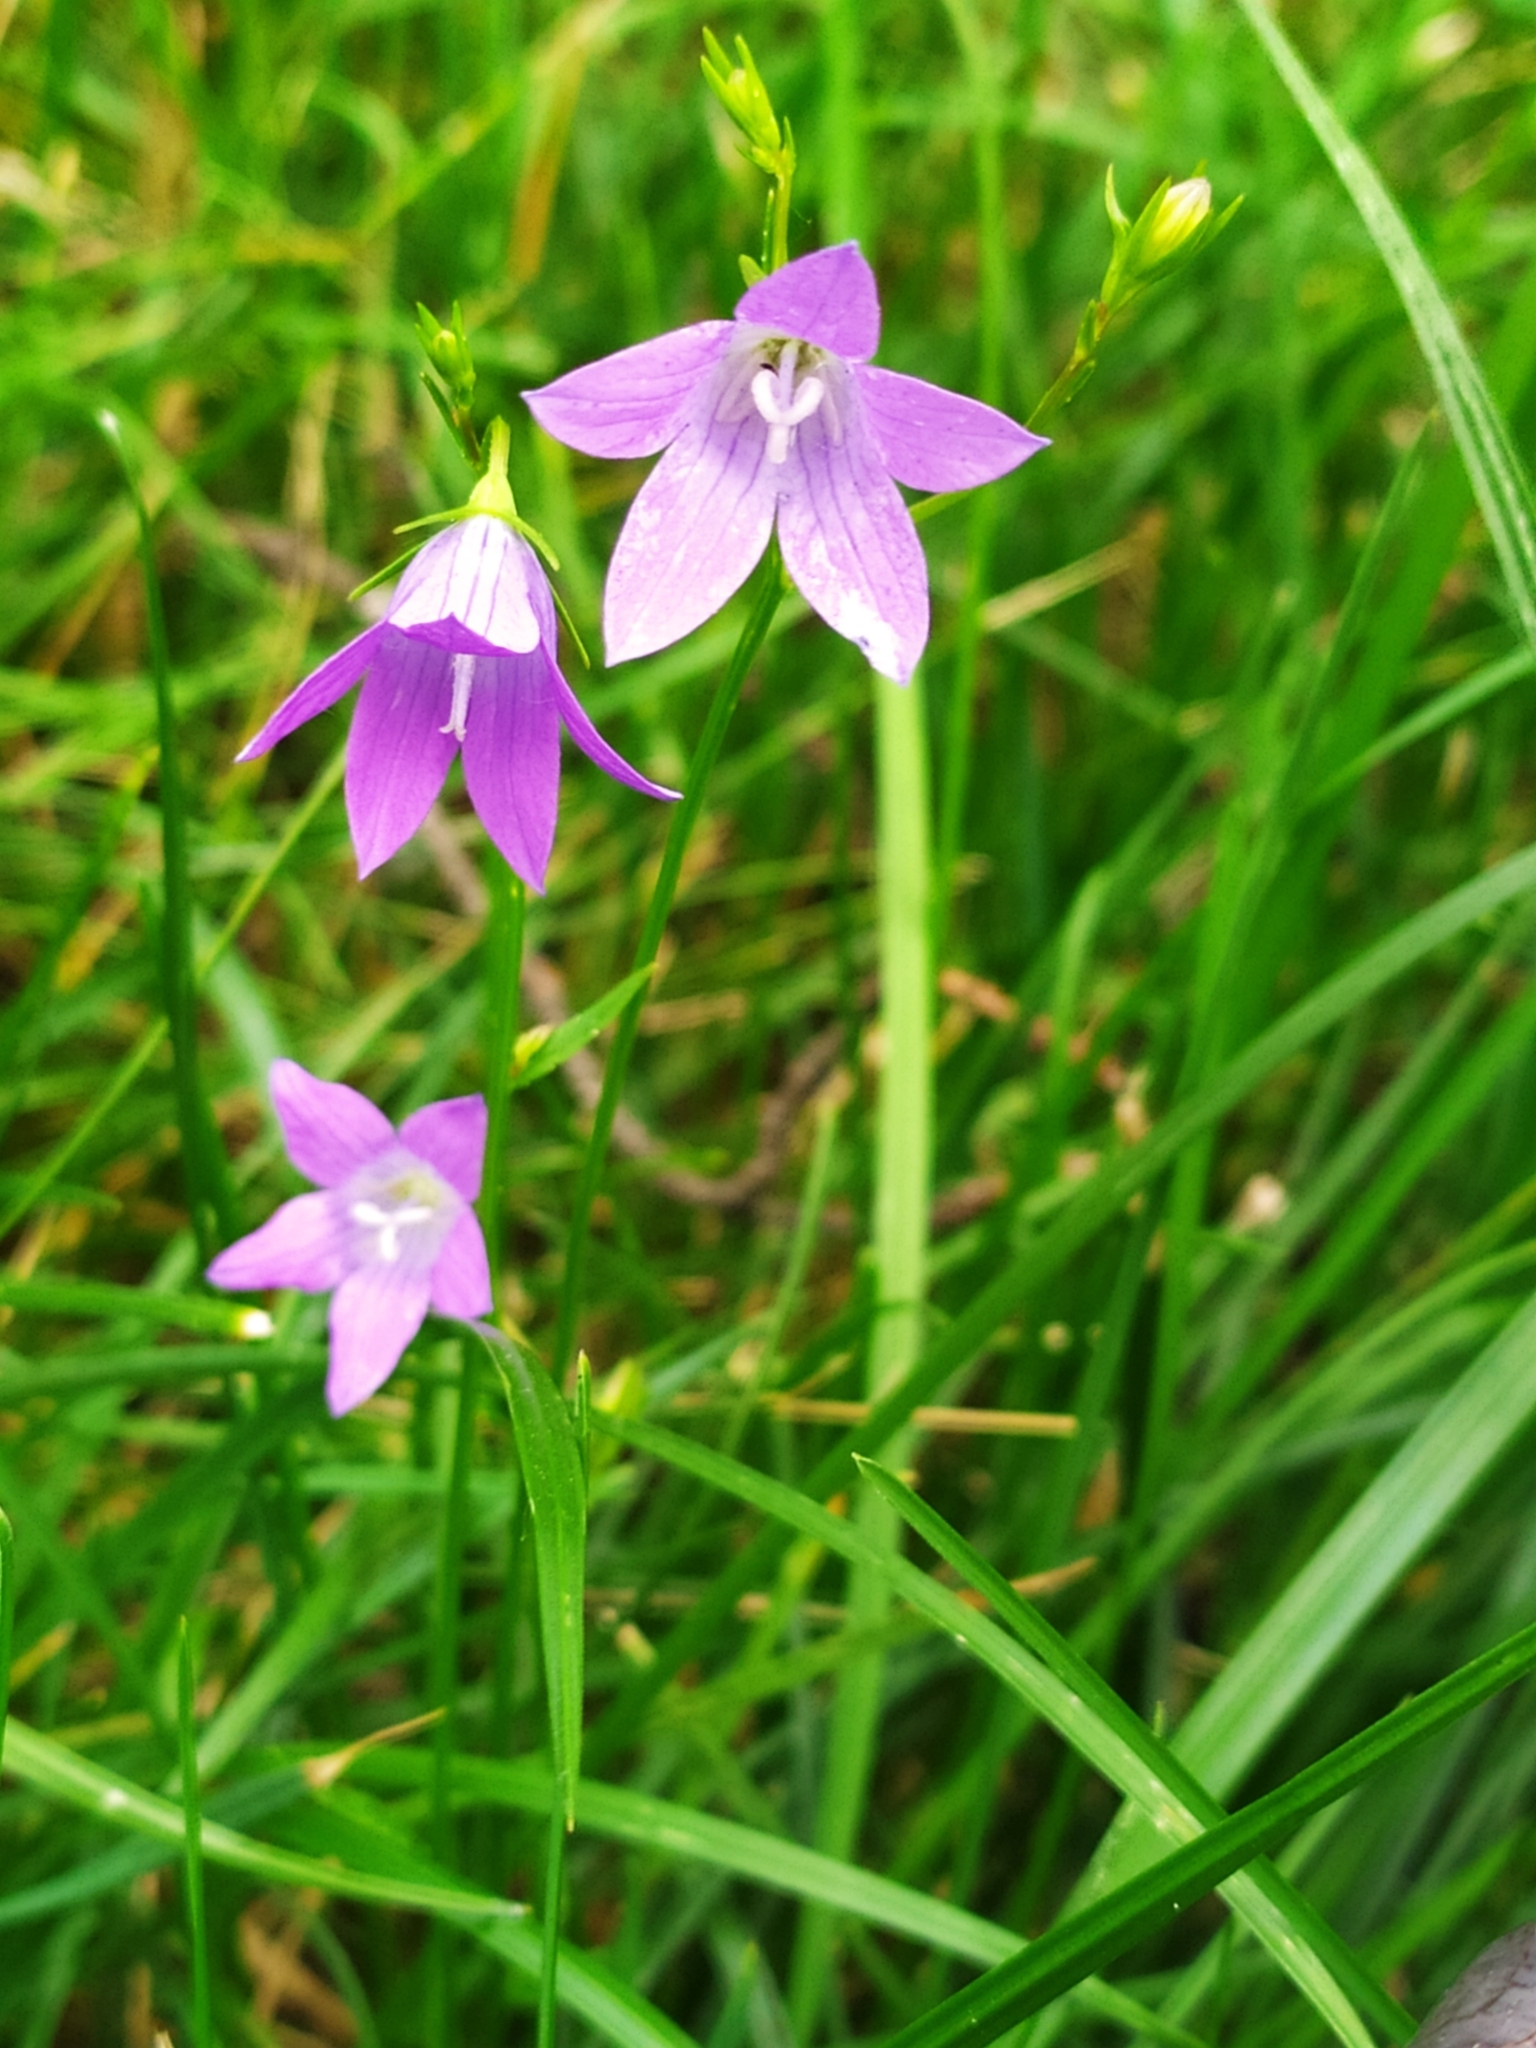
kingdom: Plantae
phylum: Tracheophyta
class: Magnoliopsida
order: Asterales
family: Campanulaceae
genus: Campanula
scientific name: Campanula patula
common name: Spreading bellflower
